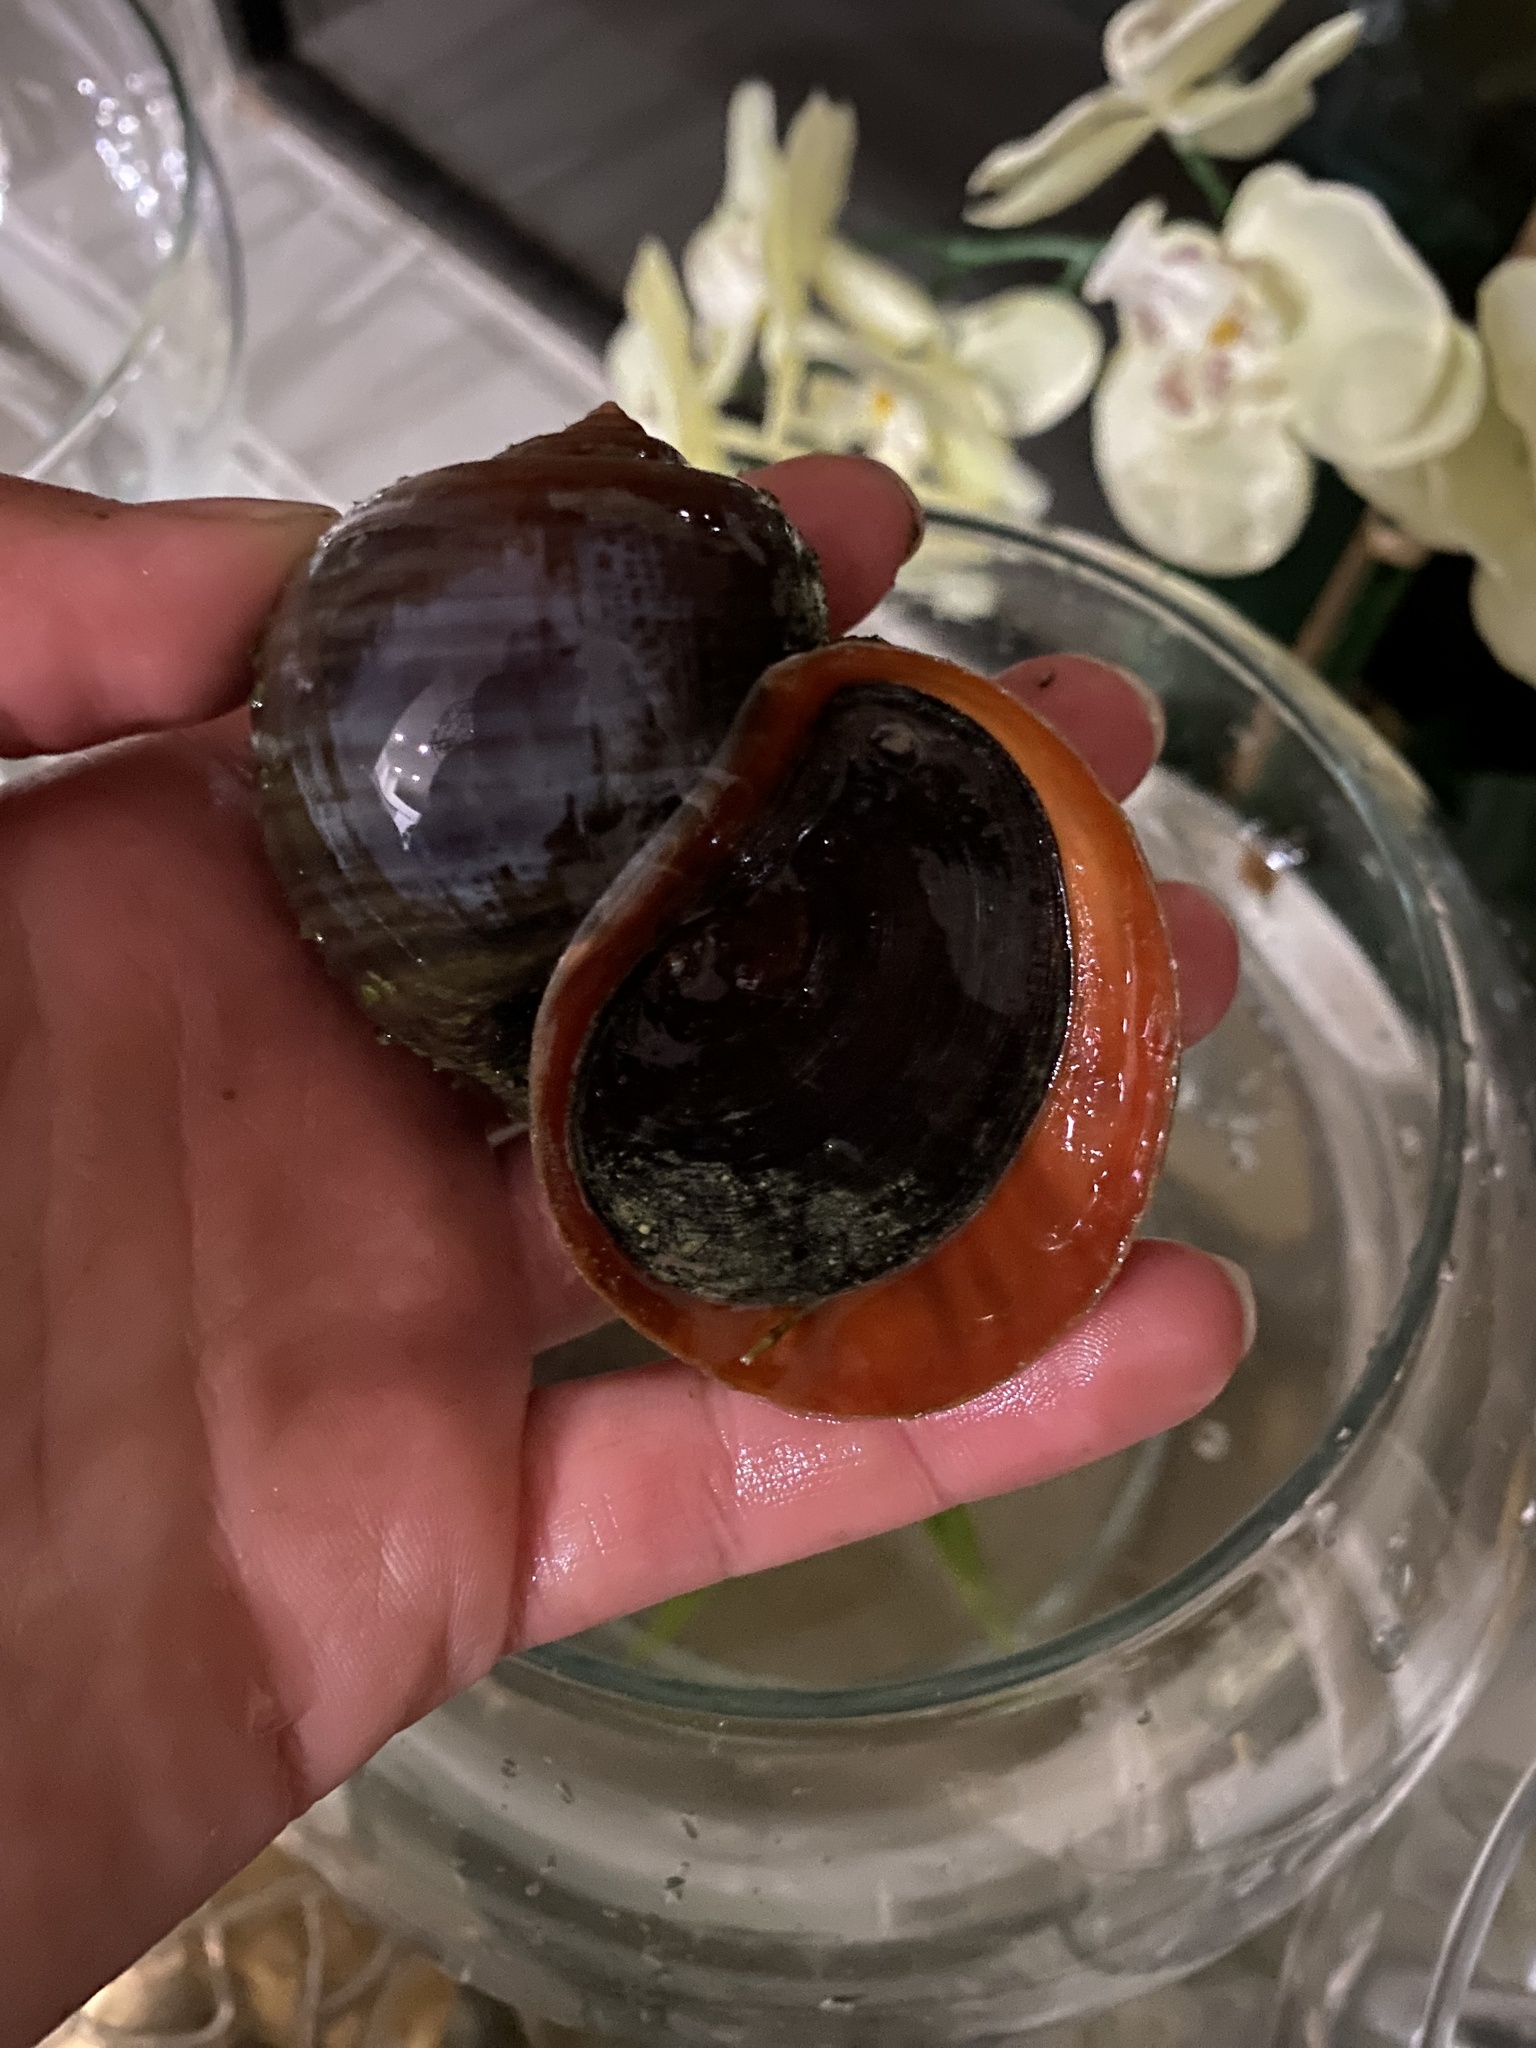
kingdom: Animalia
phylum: Mollusca
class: Gastropoda
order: Architaenioglossa
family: Ampullariidae
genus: Pomacea
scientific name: Pomacea maculata
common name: Giant applesnail
